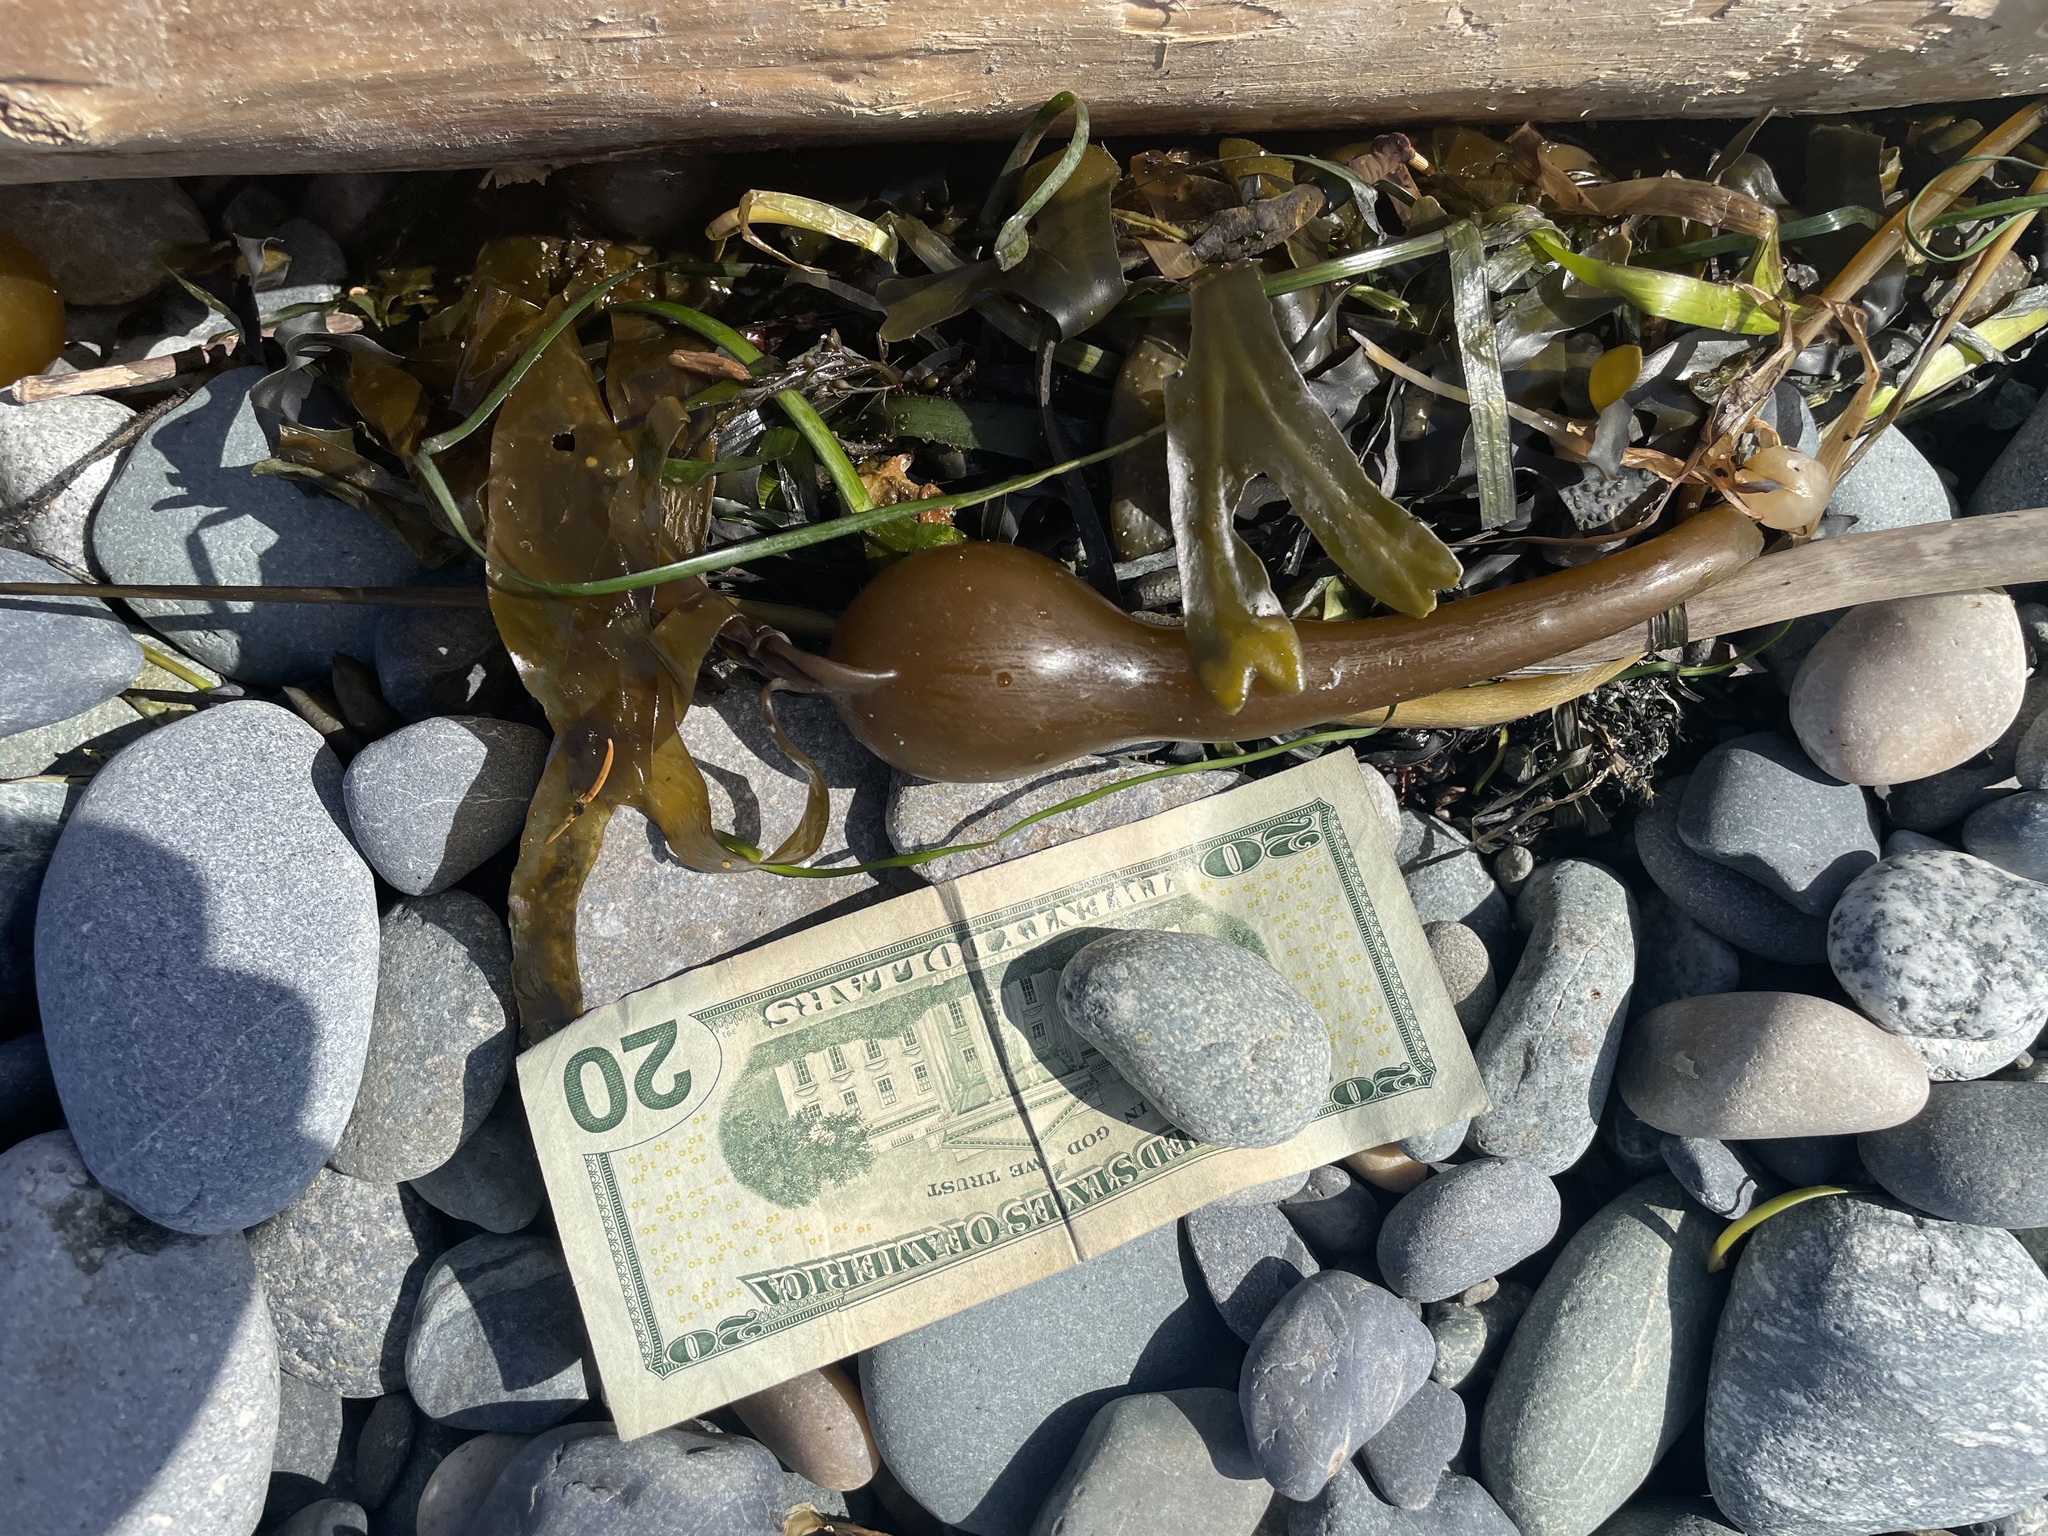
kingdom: Chromista
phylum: Ochrophyta
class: Phaeophyceae
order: Laminariales
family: Laminariaceae
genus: Nereocystis
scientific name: Nereocystis luetkeana
